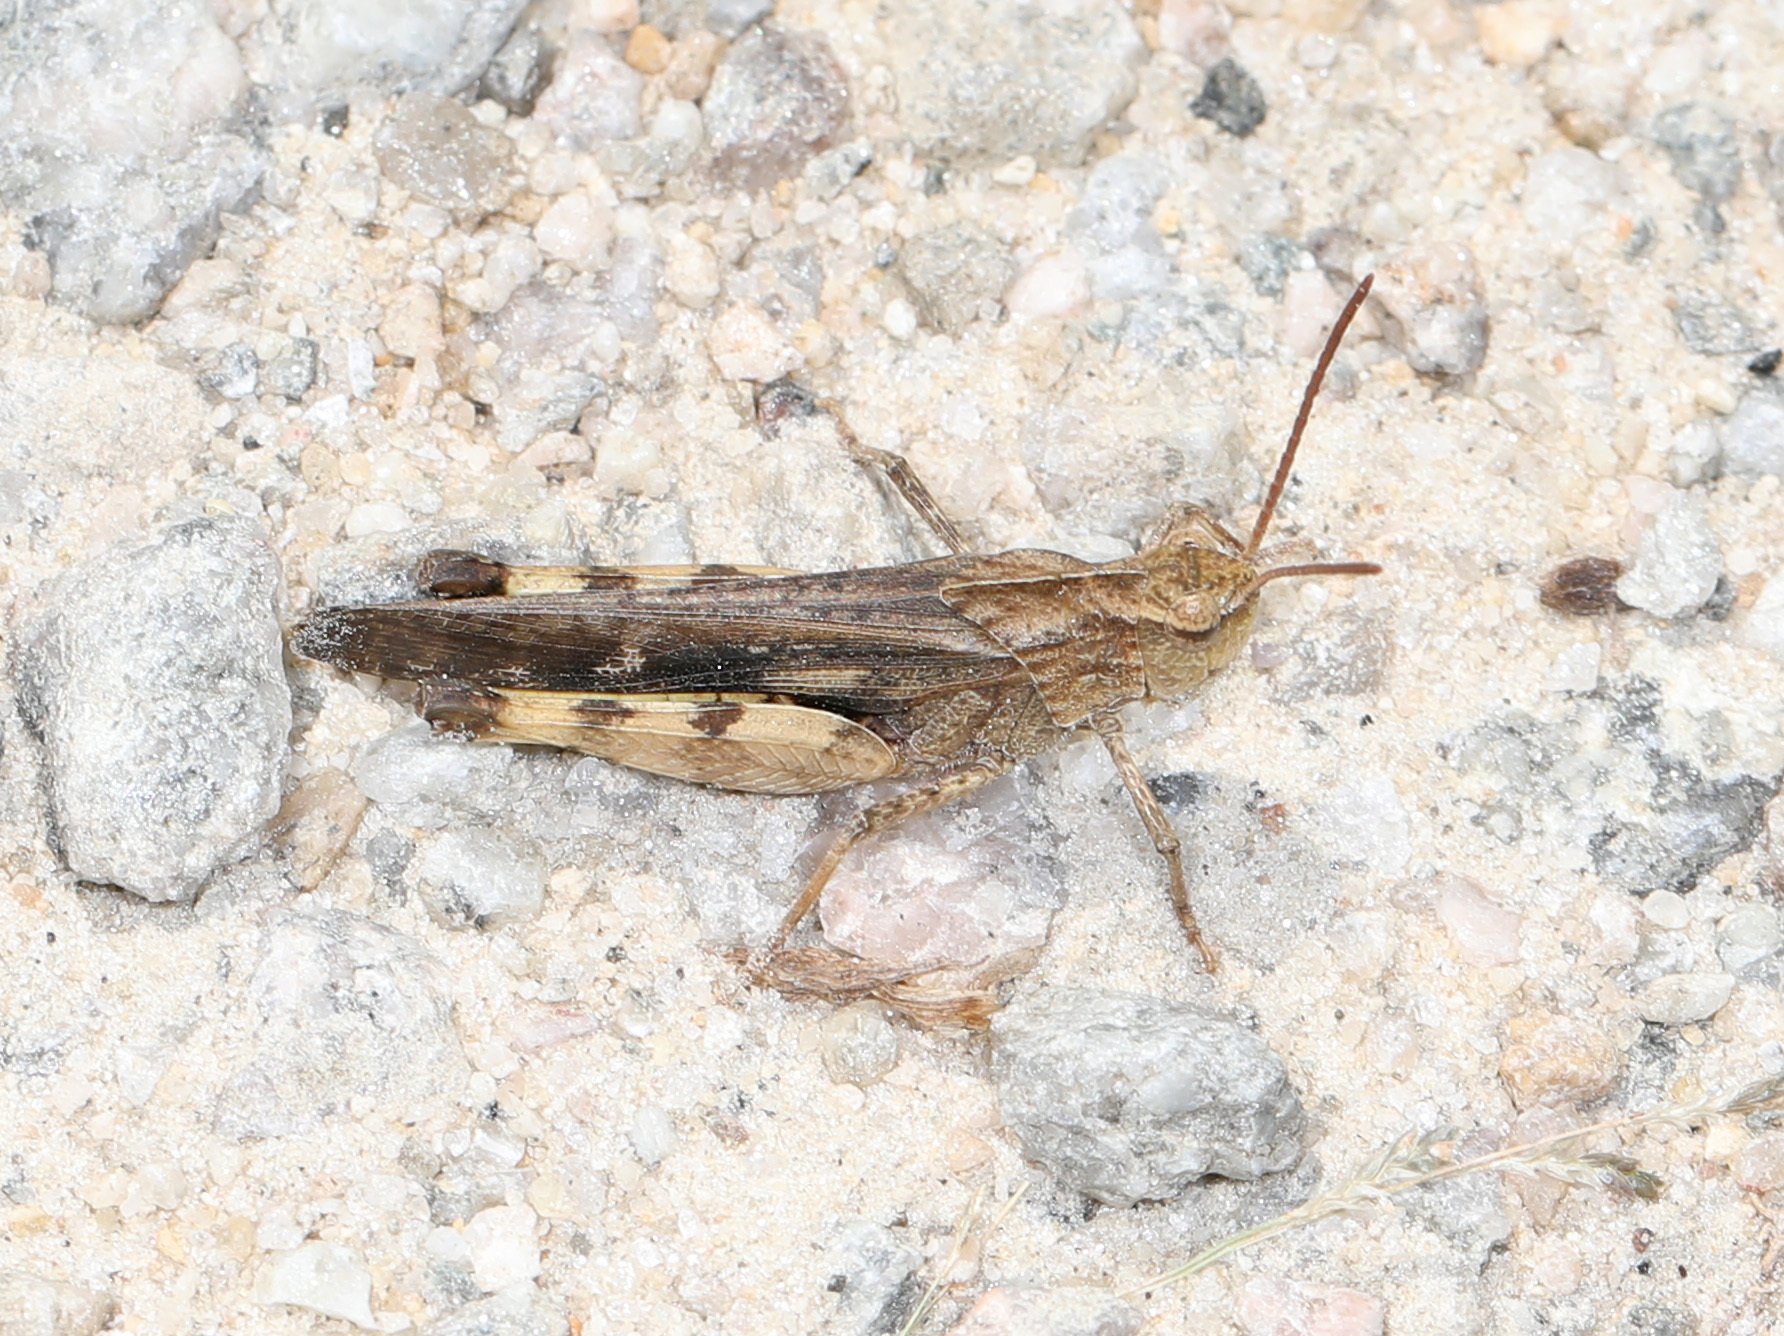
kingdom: Animalia
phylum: Arthropoda
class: Insecta
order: Orthoptera
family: Acrididae
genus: Chortophaga
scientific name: Chortophaga viridifasciata
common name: Green-striped grasshopper
